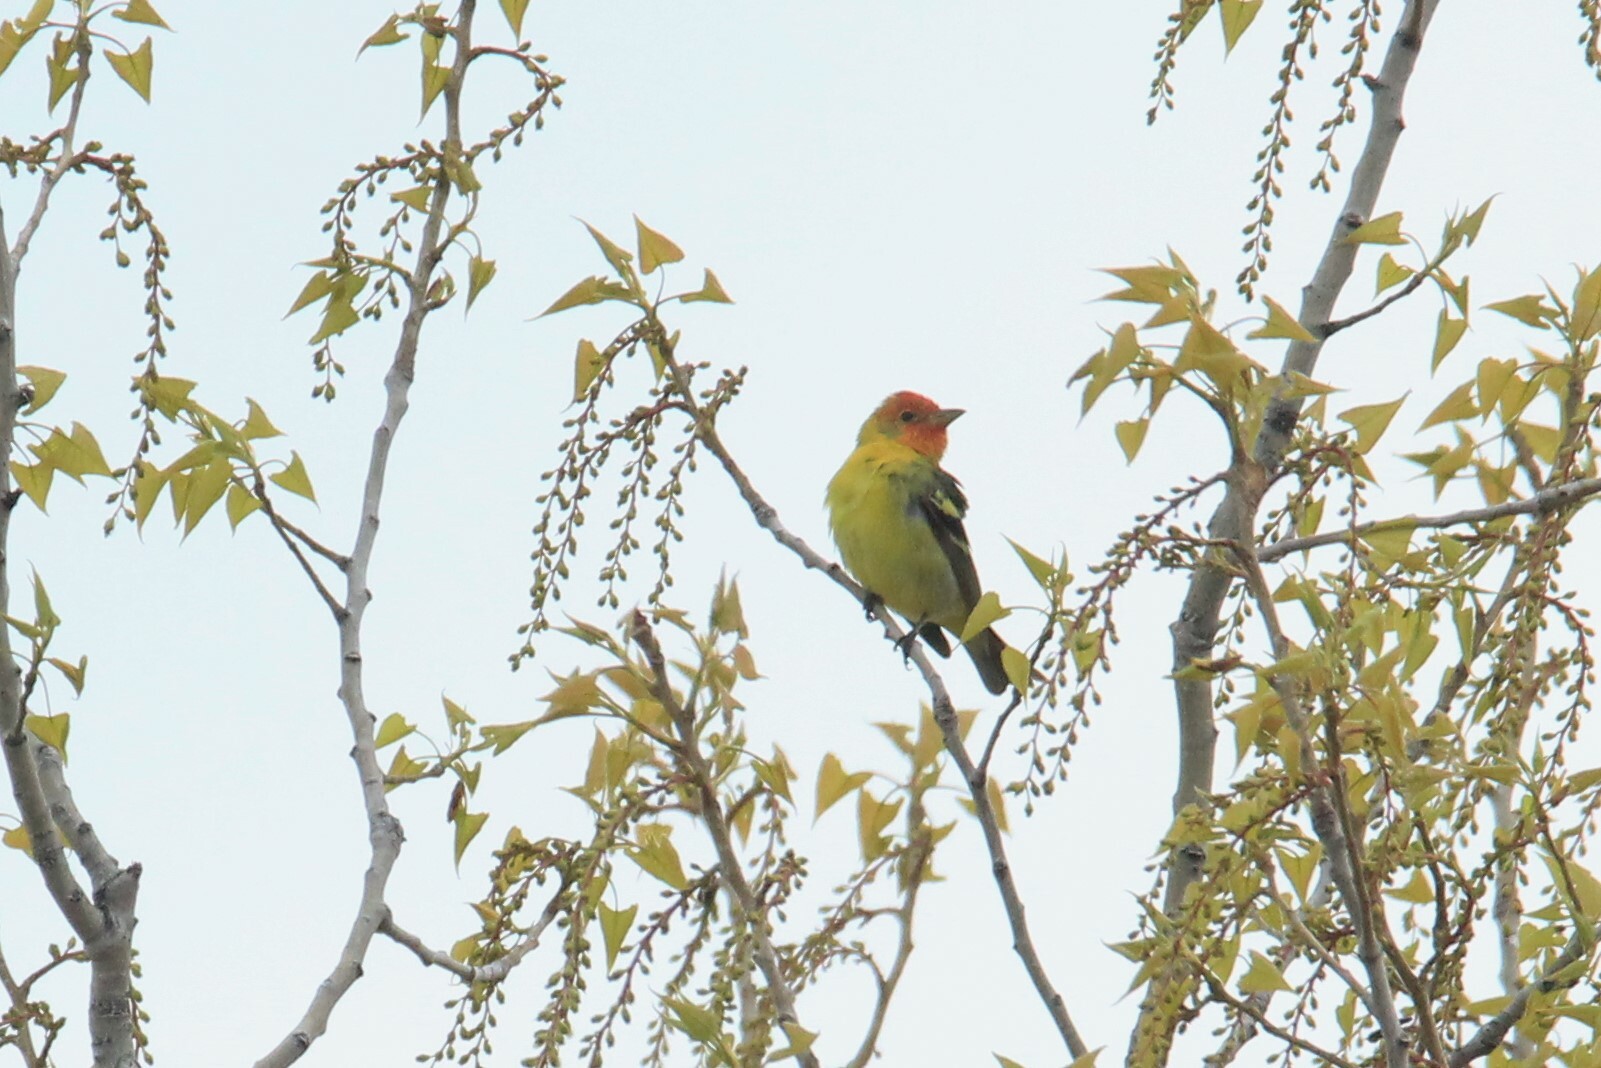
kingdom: Animalia
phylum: Chordata
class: Aves
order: Passeriformes
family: Cardinalidae
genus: Piranga
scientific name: Piranga ludoviciana
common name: Western tanager
